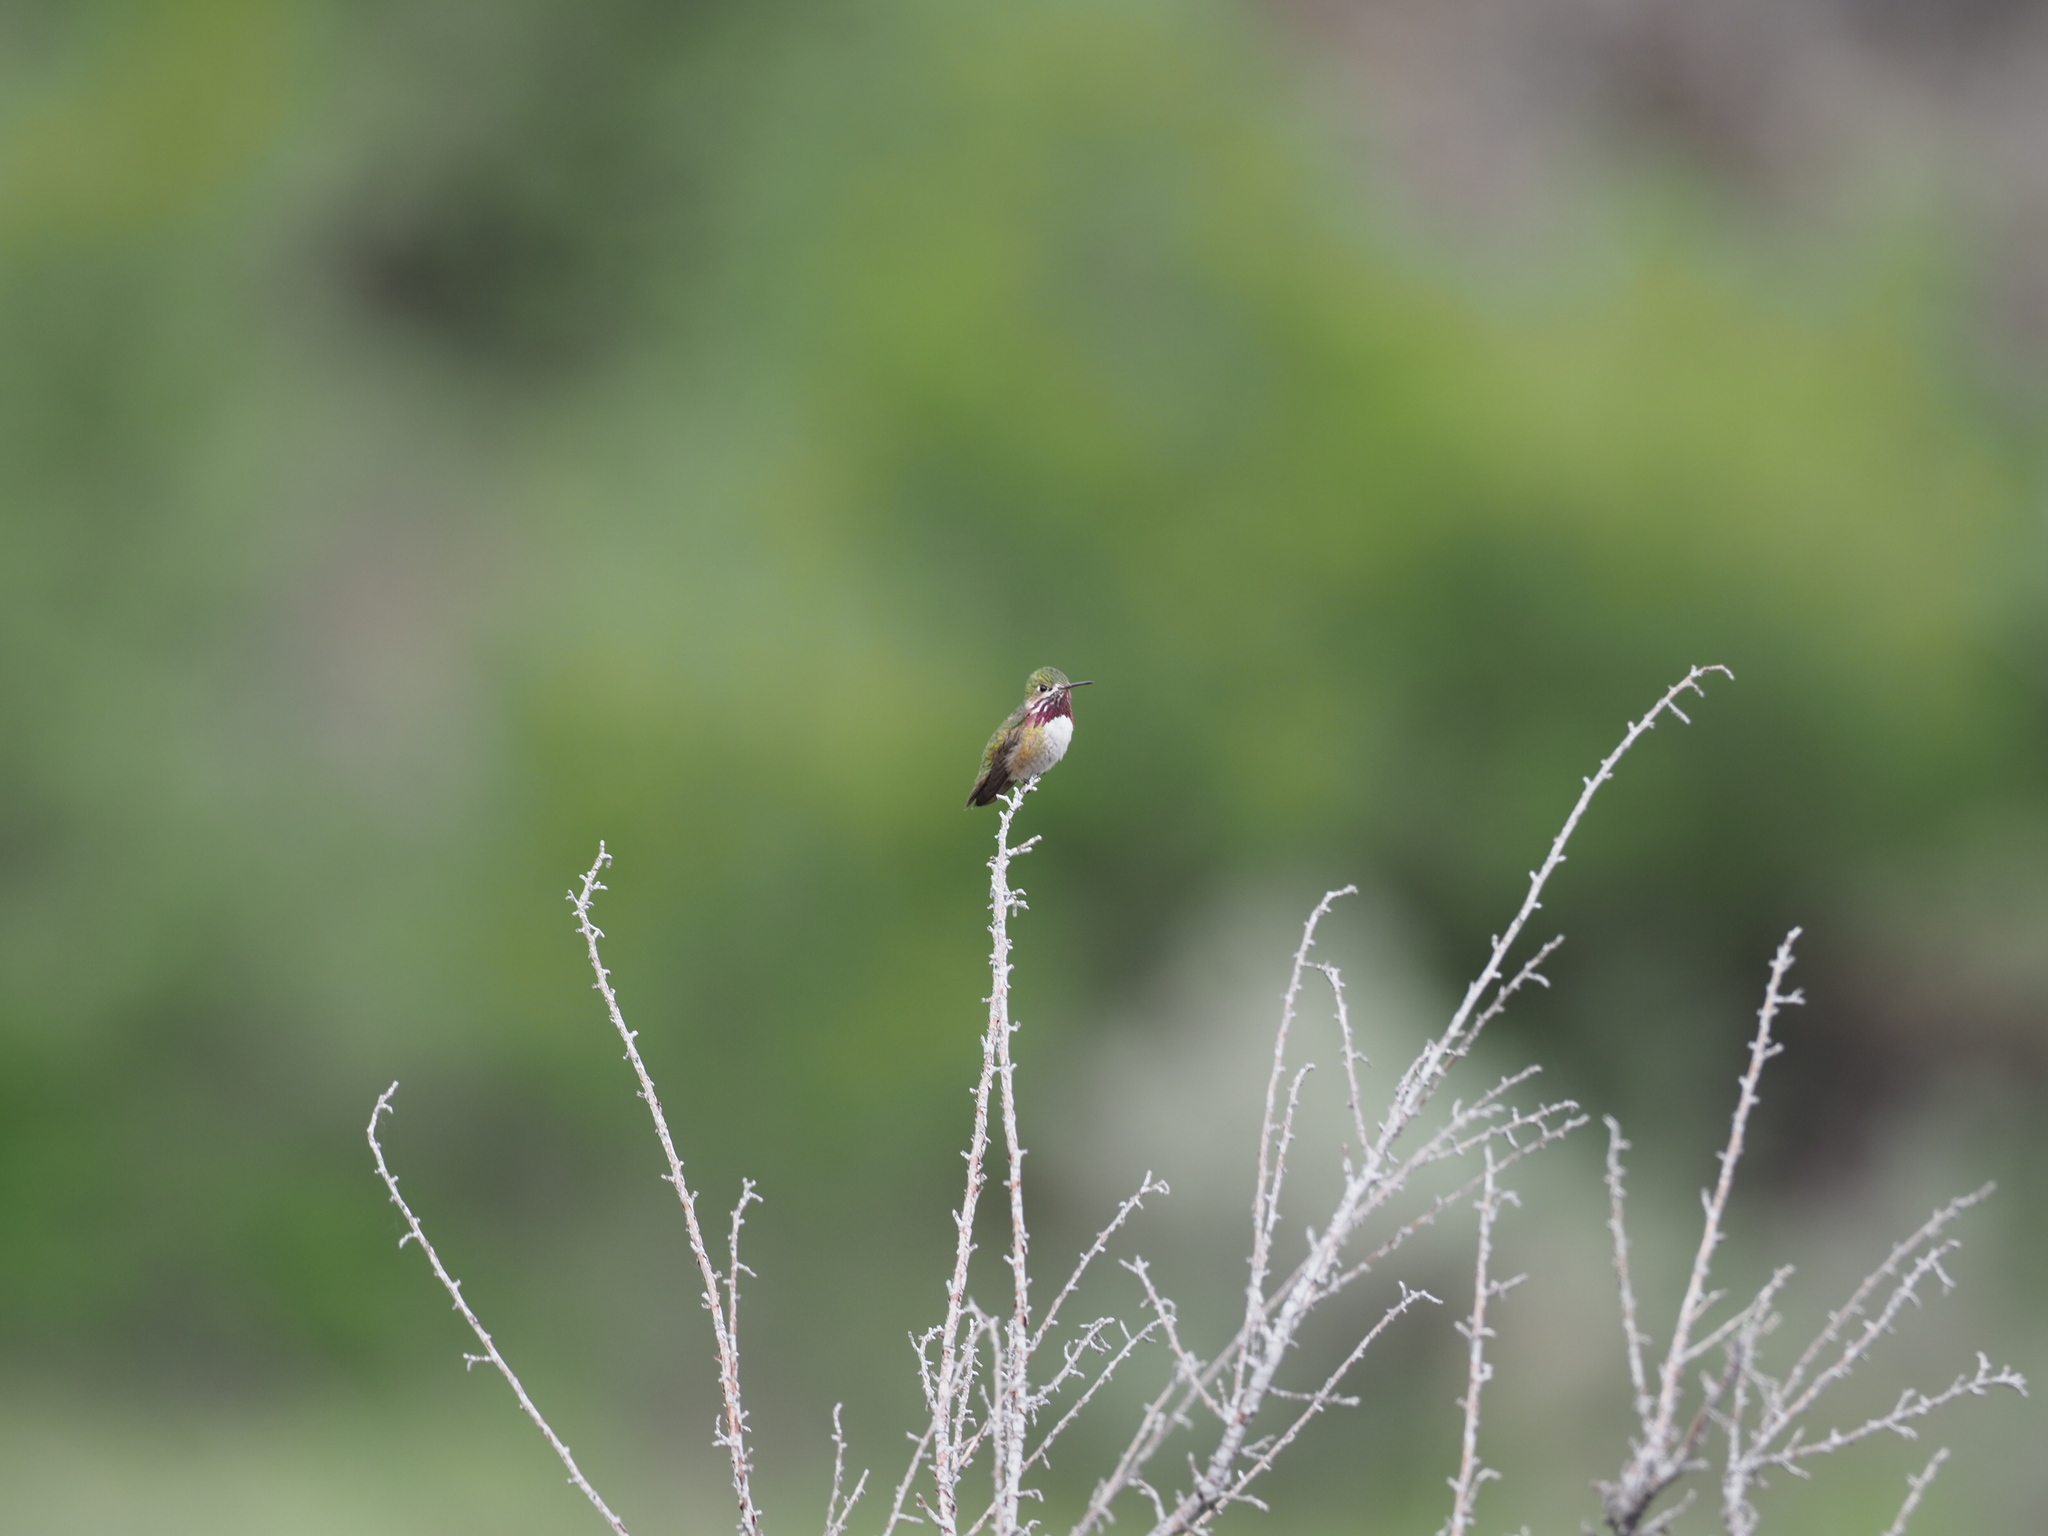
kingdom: Animalia
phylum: Chordata
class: Aves
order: Apodiformes
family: Trochilidae
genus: Selasphorus
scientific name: Selasphorus calliope
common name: Calliope hummingbird
